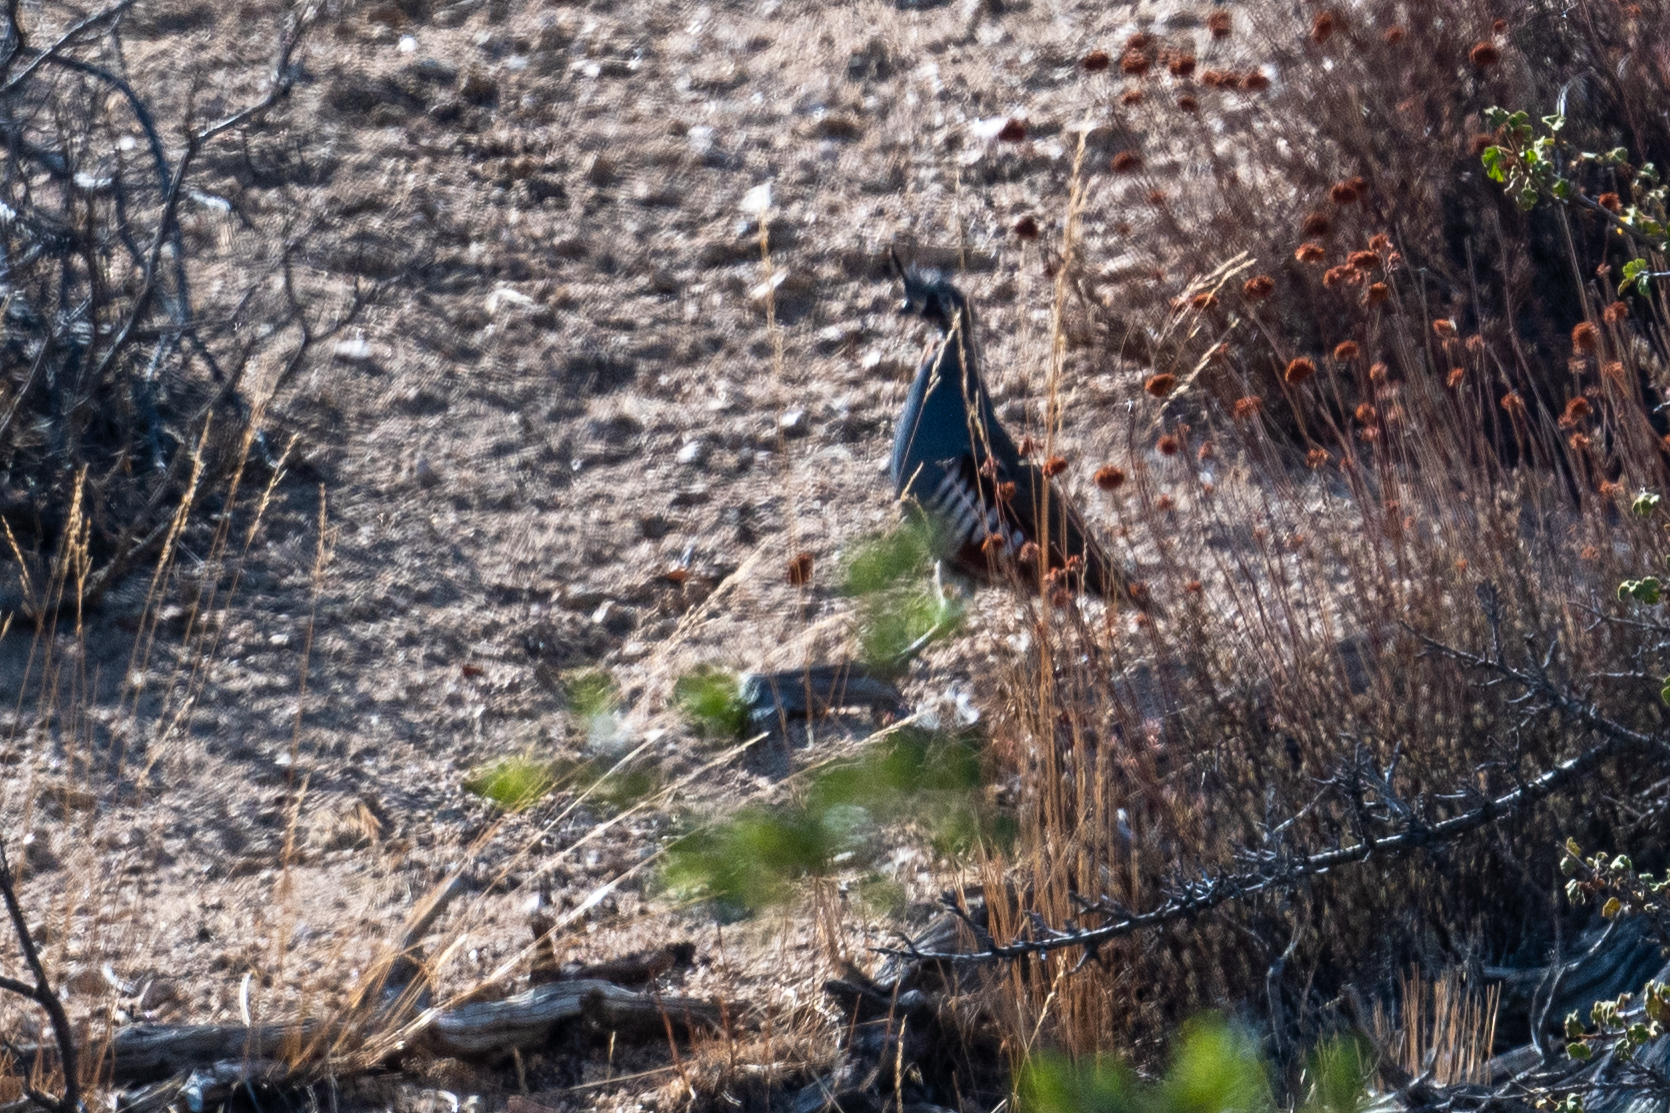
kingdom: Animalia
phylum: Chordata
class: Aves
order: Galliformes
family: Odontophoridae
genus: Oreortyx
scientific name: Oreortyx pictus
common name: Mountain quail
